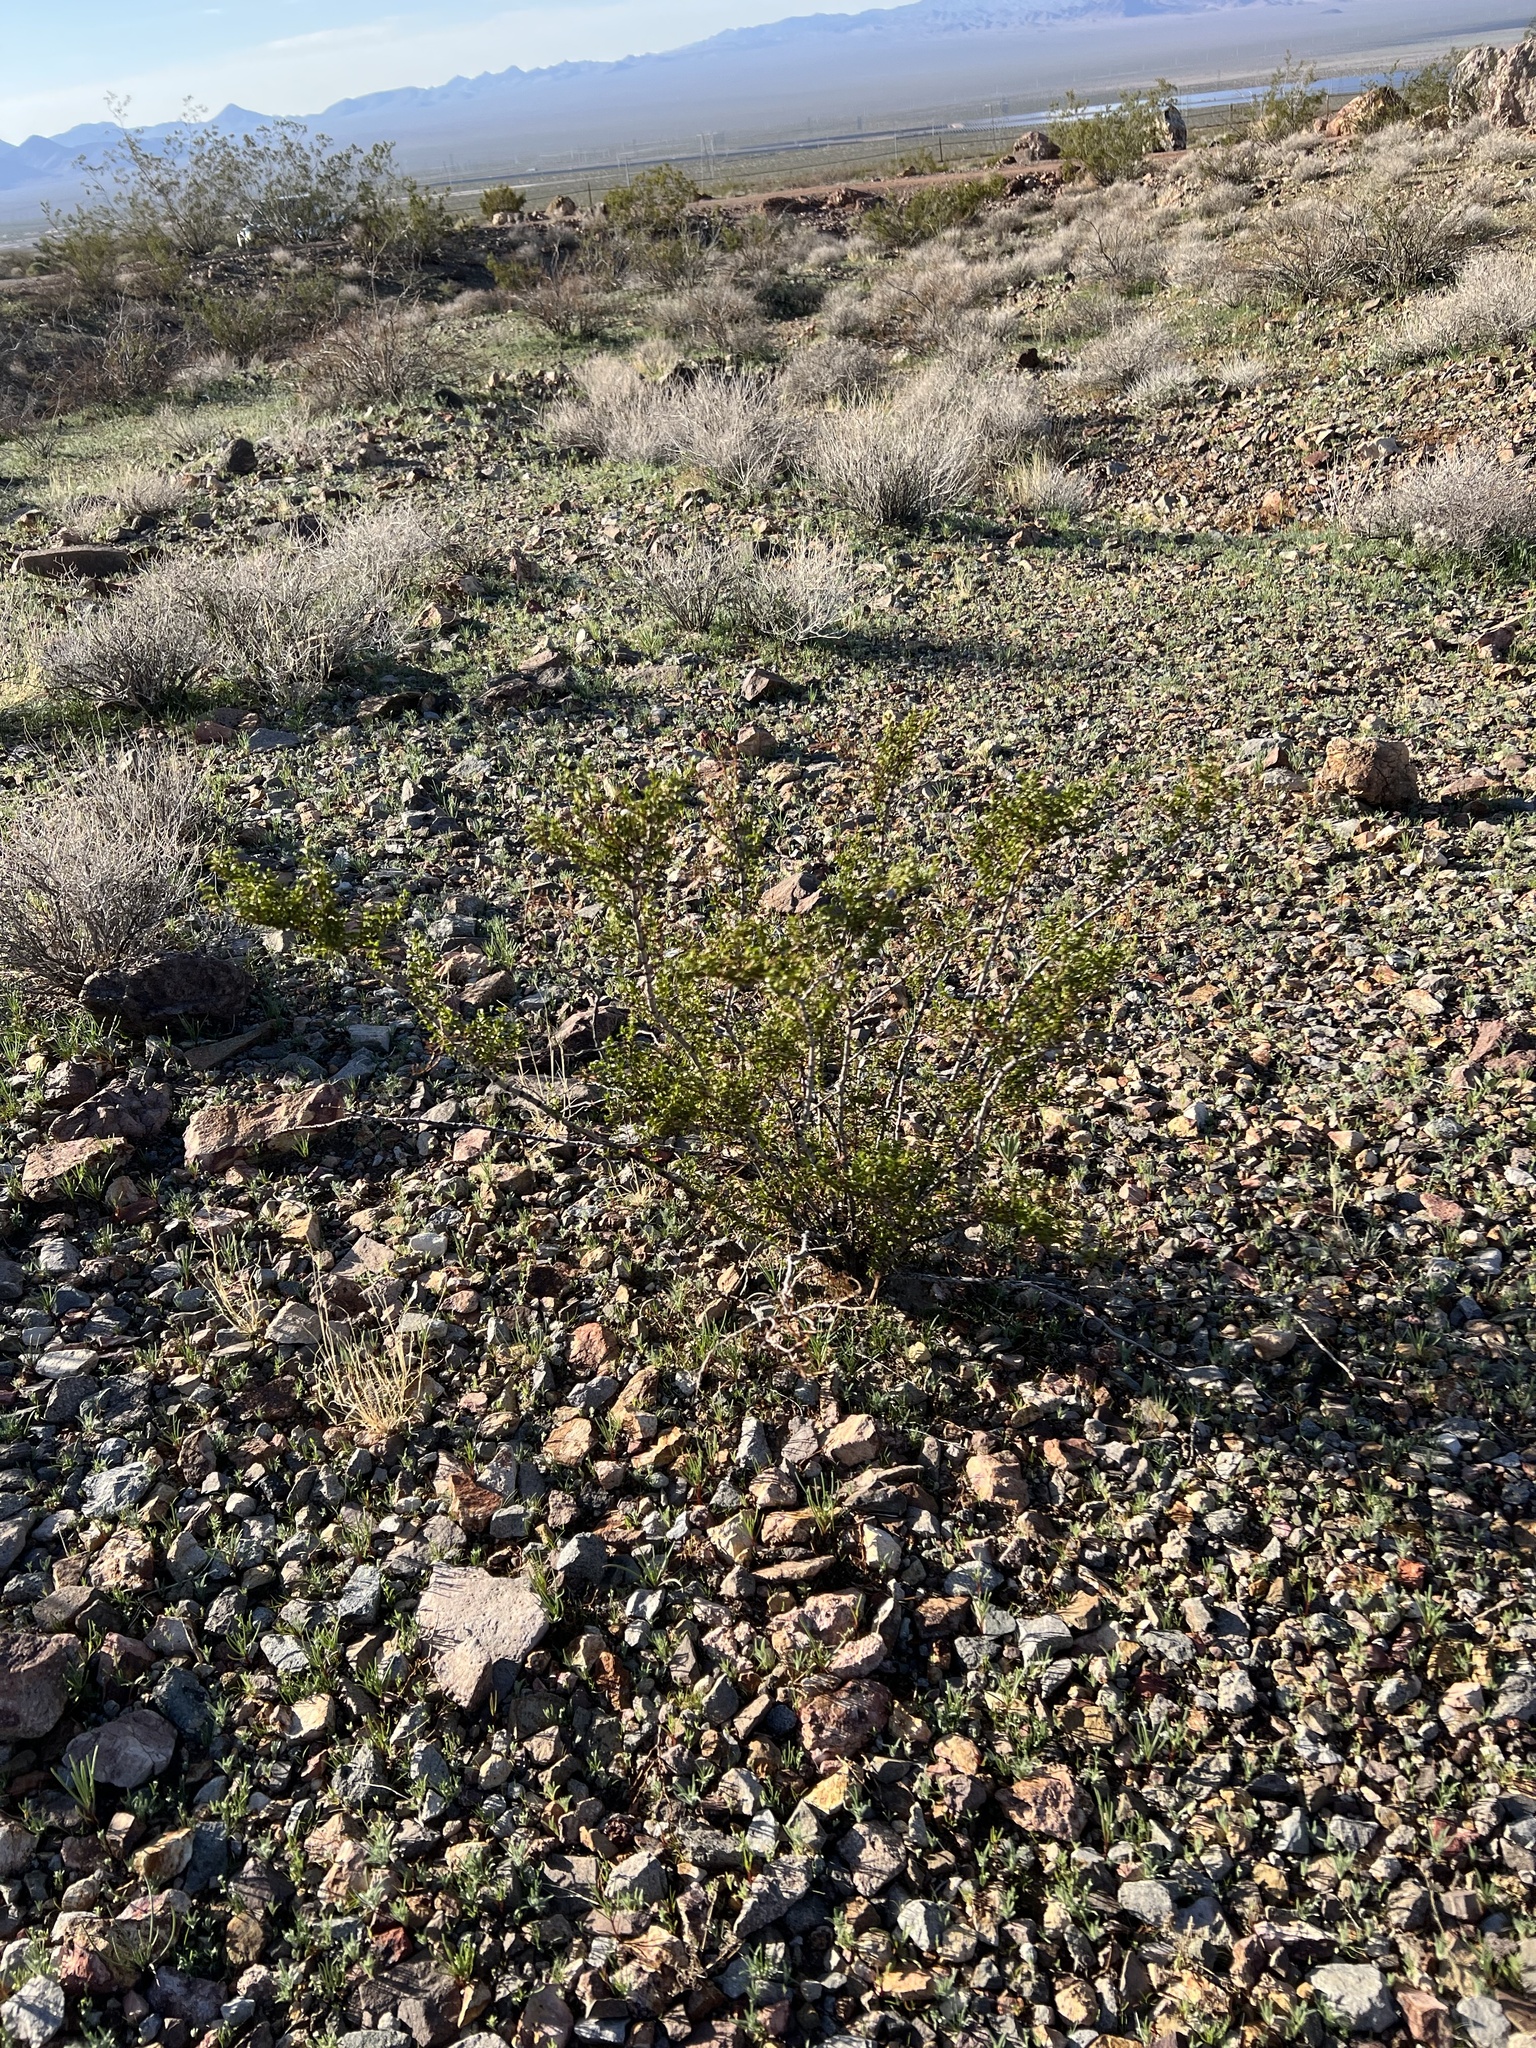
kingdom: Plantae
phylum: Tracheophyta
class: Magnoliopsida
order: Zygophyllales
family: Zygophyllaceae
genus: Larrea
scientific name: Larrea tridentata
